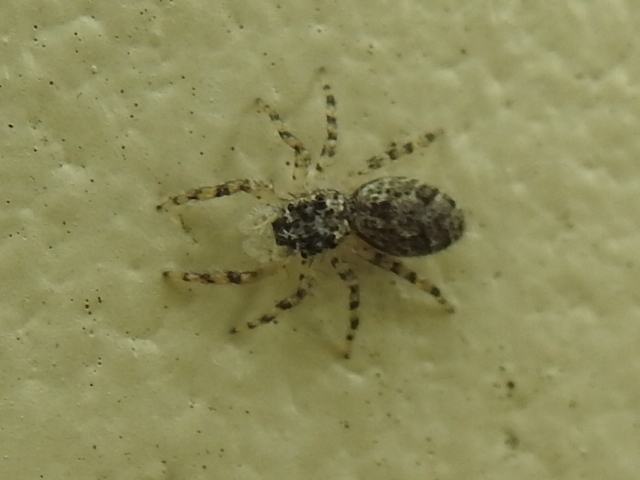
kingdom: Animalia
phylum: Arthropoda
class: Arachnida
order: Araneae
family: Salticidae
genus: Platycryptus
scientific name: Platycryptus undatus
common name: Tan jumping spider
